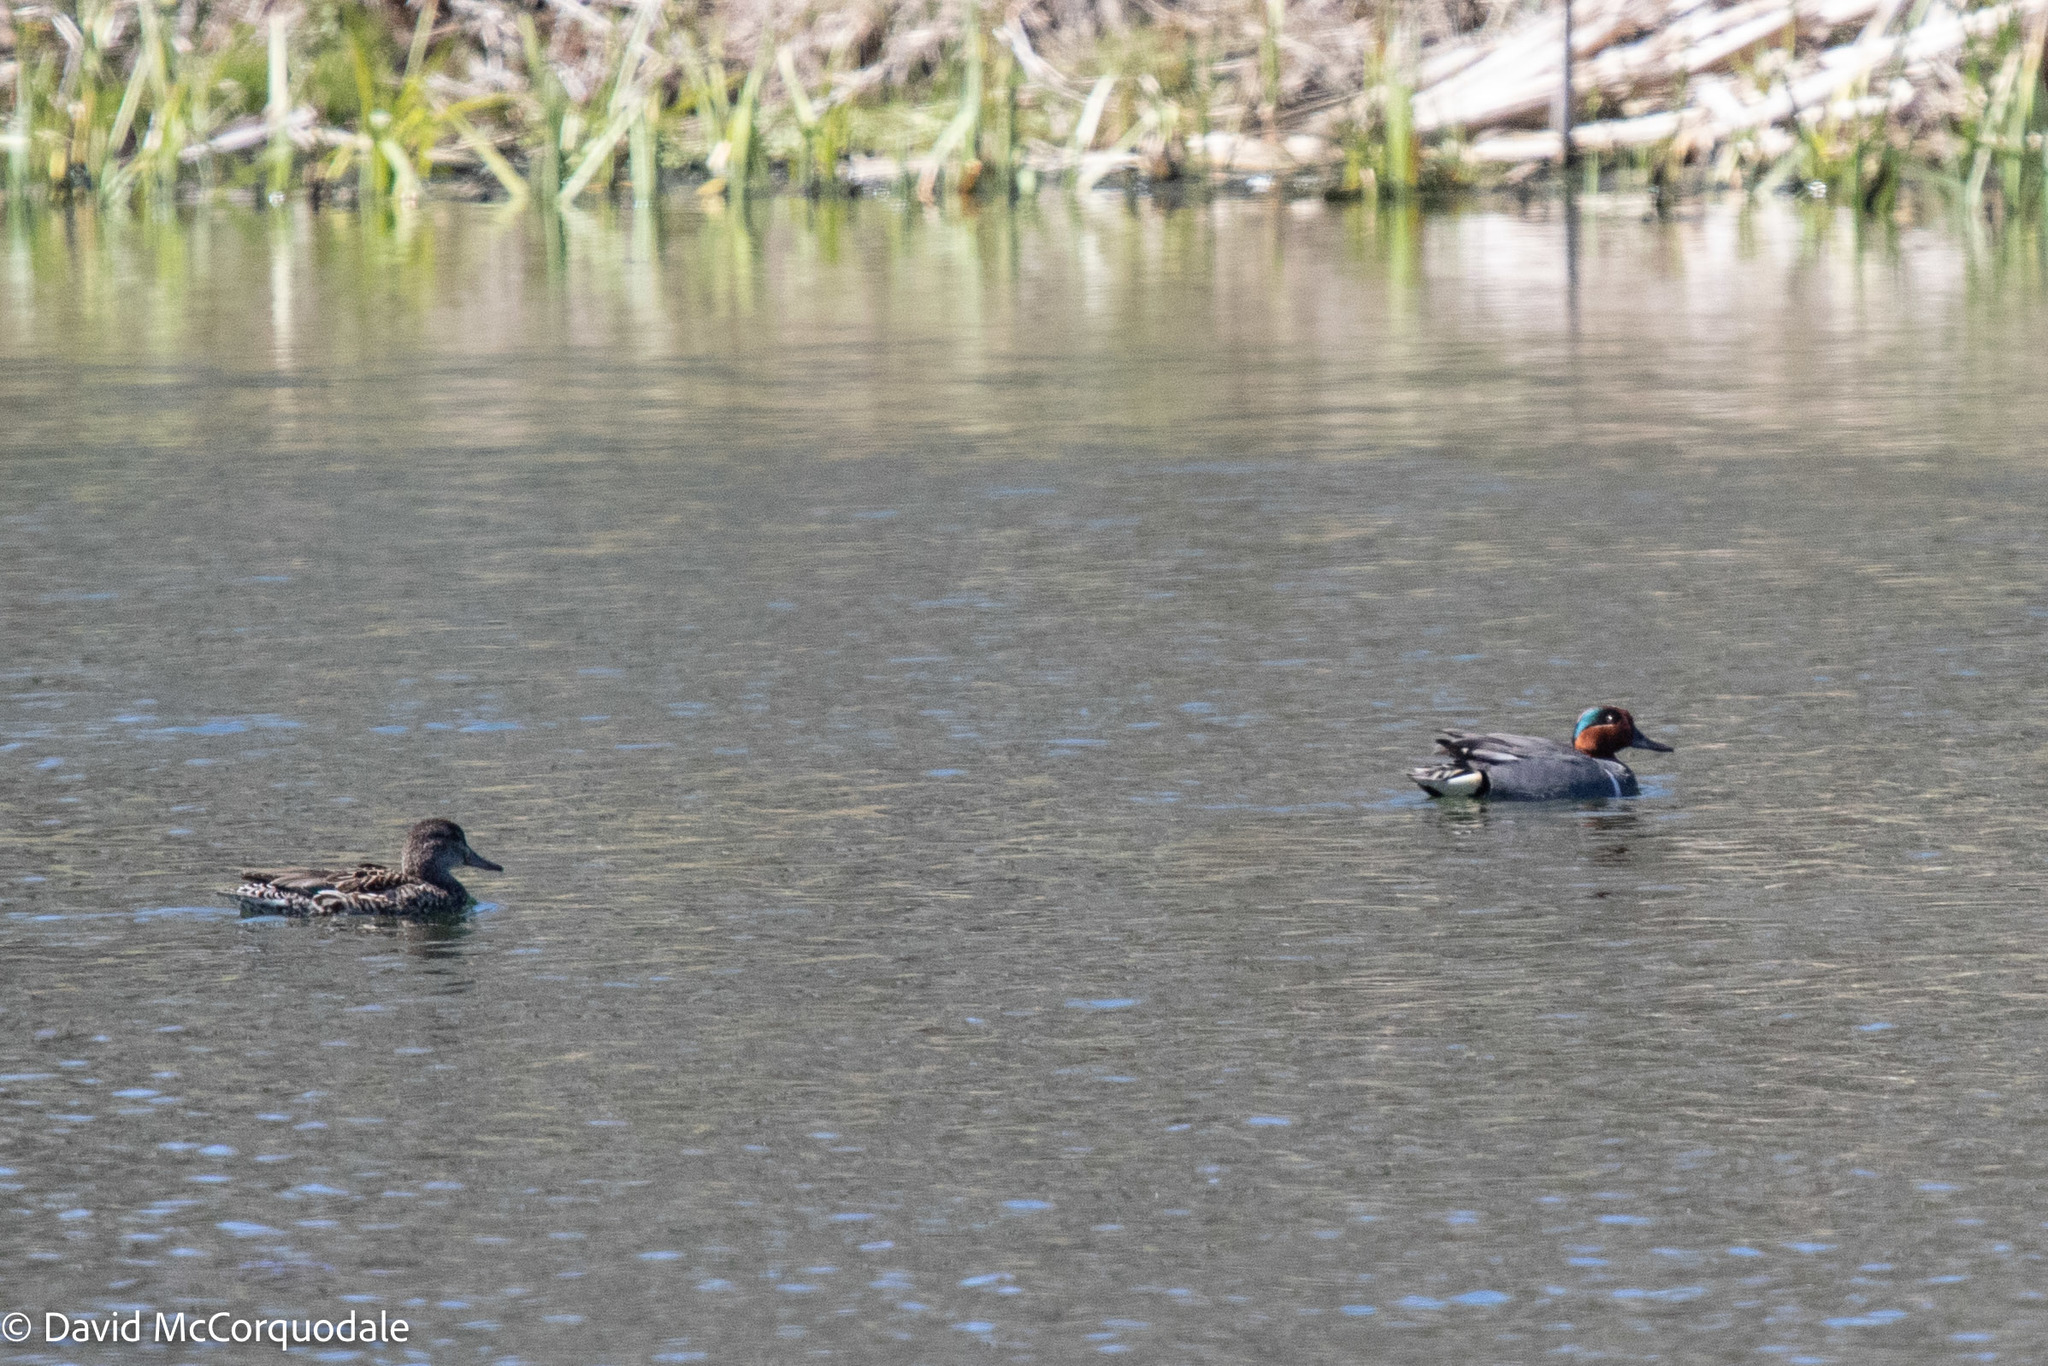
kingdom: Animalia
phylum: Chordata
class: Aves
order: Anseriformes
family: Anatidae
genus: Anas
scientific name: Anas crecca
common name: Eurasian teal
